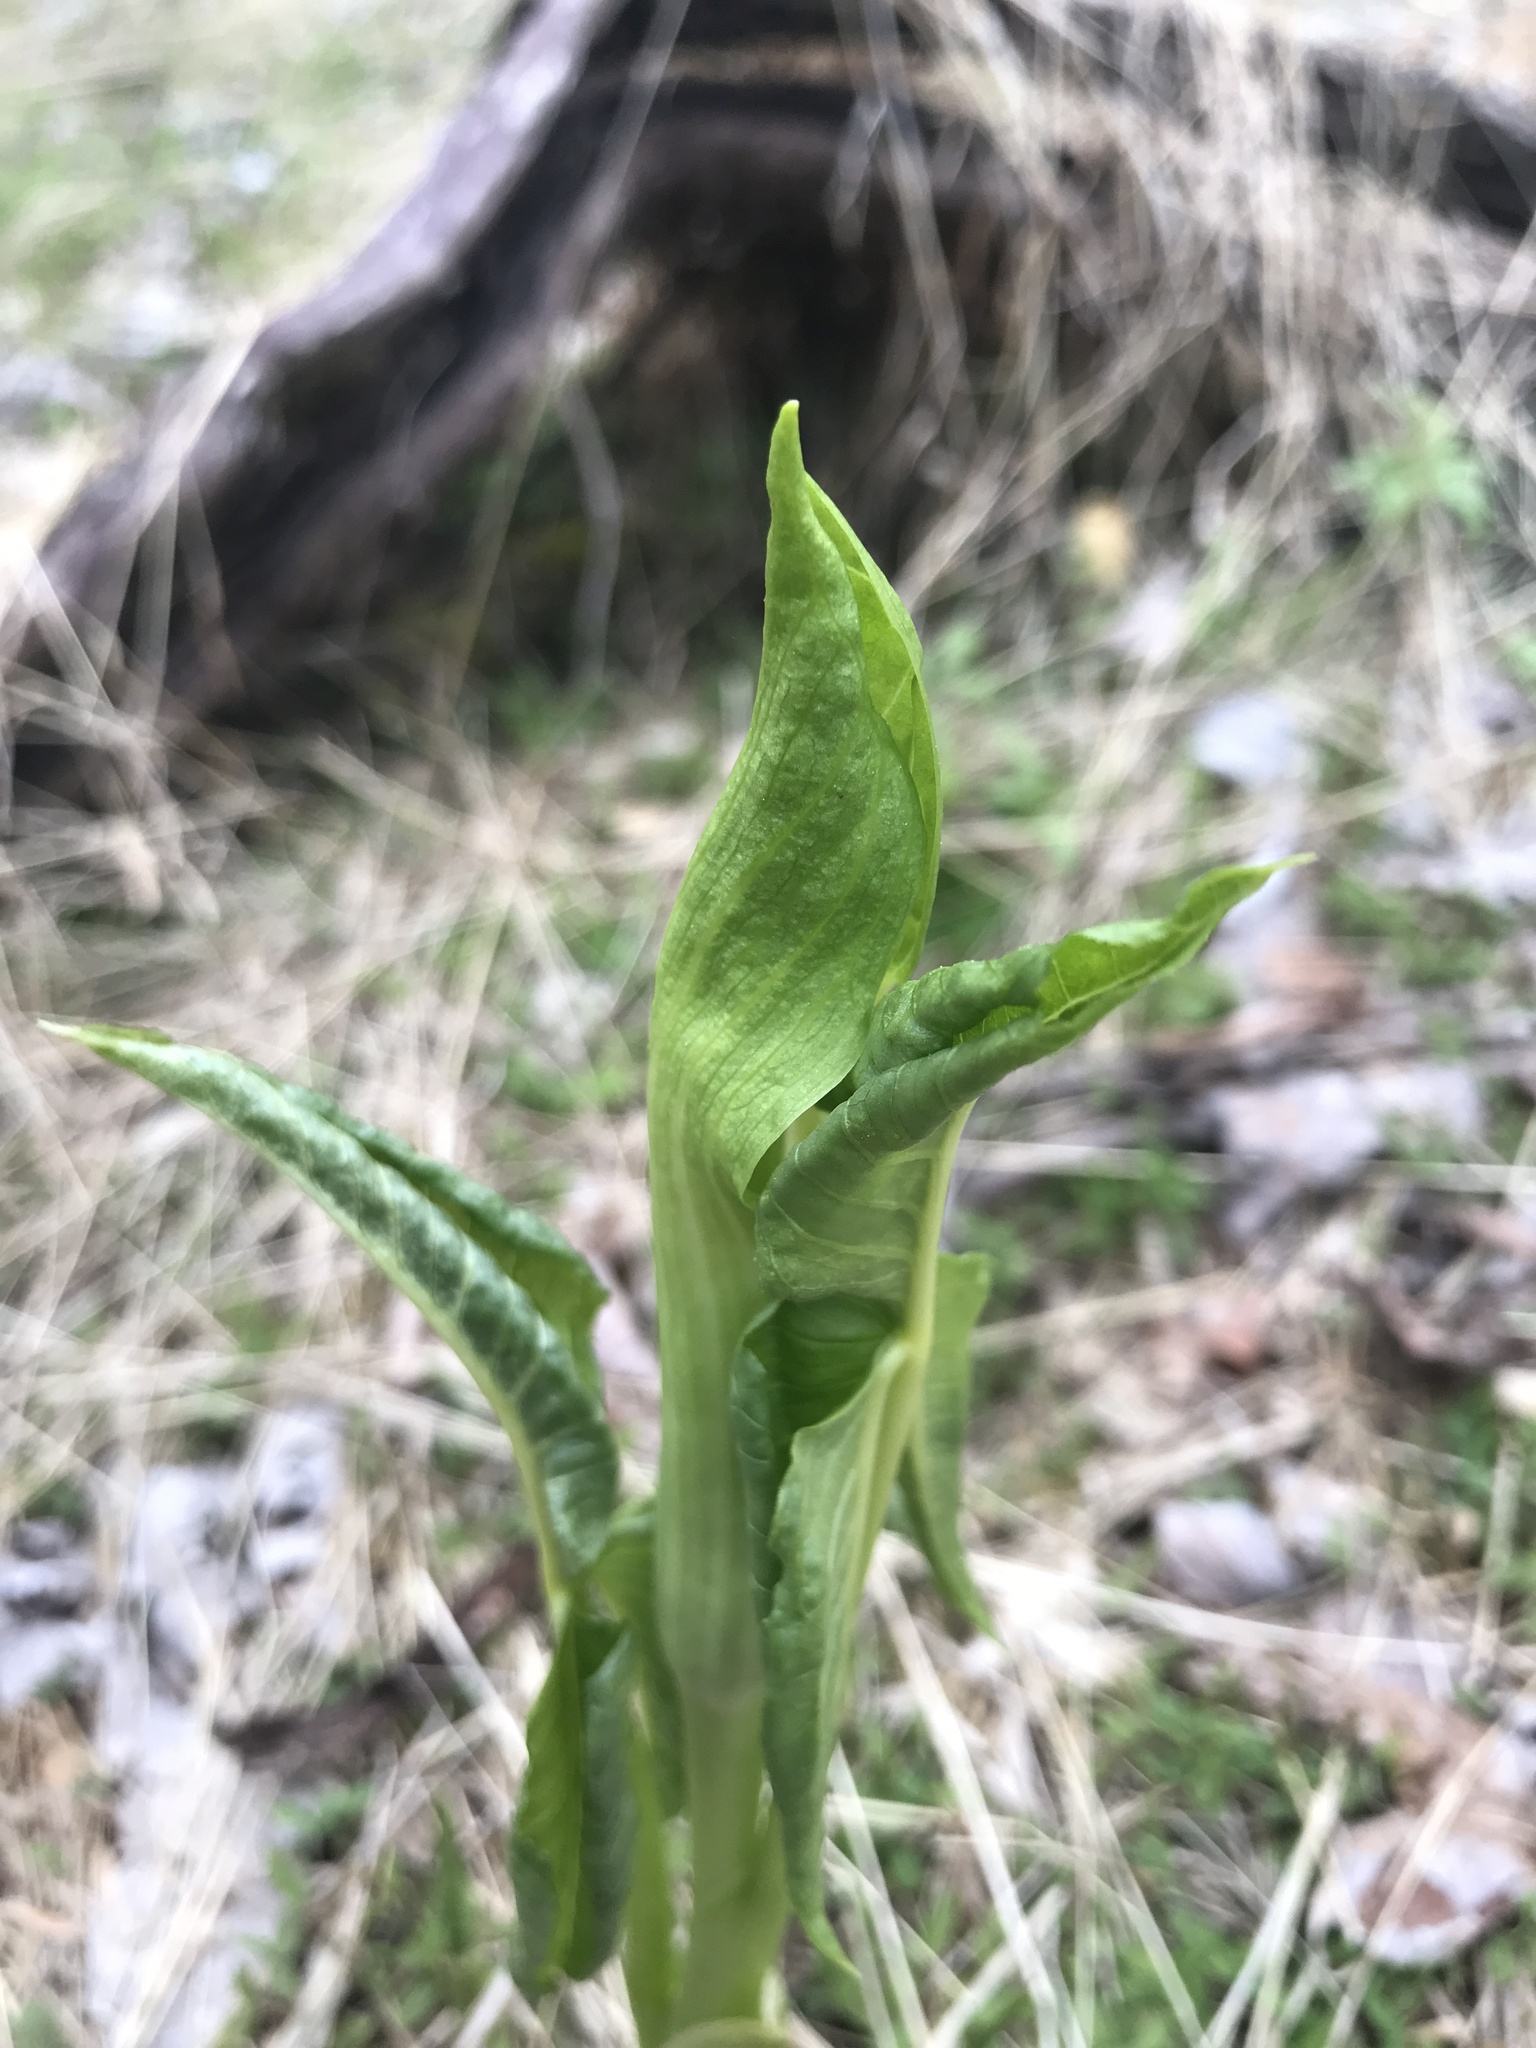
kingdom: Plantae
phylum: Tracheophyta
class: Liliopsida
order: Alismatales
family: Araceae
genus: Arisaema
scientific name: Arisaema triphyllum
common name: Jack-in-the-pulpit
